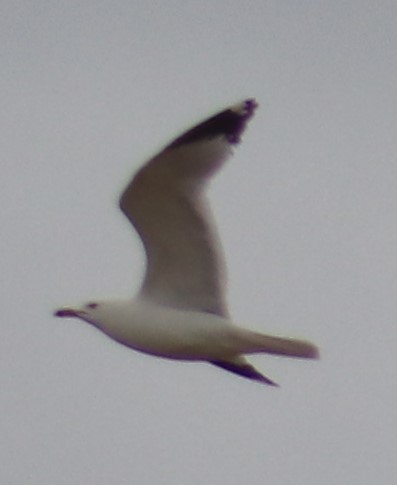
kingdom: Animalia
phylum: Chordata
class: Aves
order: Charadriiformes
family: Laridae
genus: Larus
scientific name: Larus delawarensis
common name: Ring-billed gull
